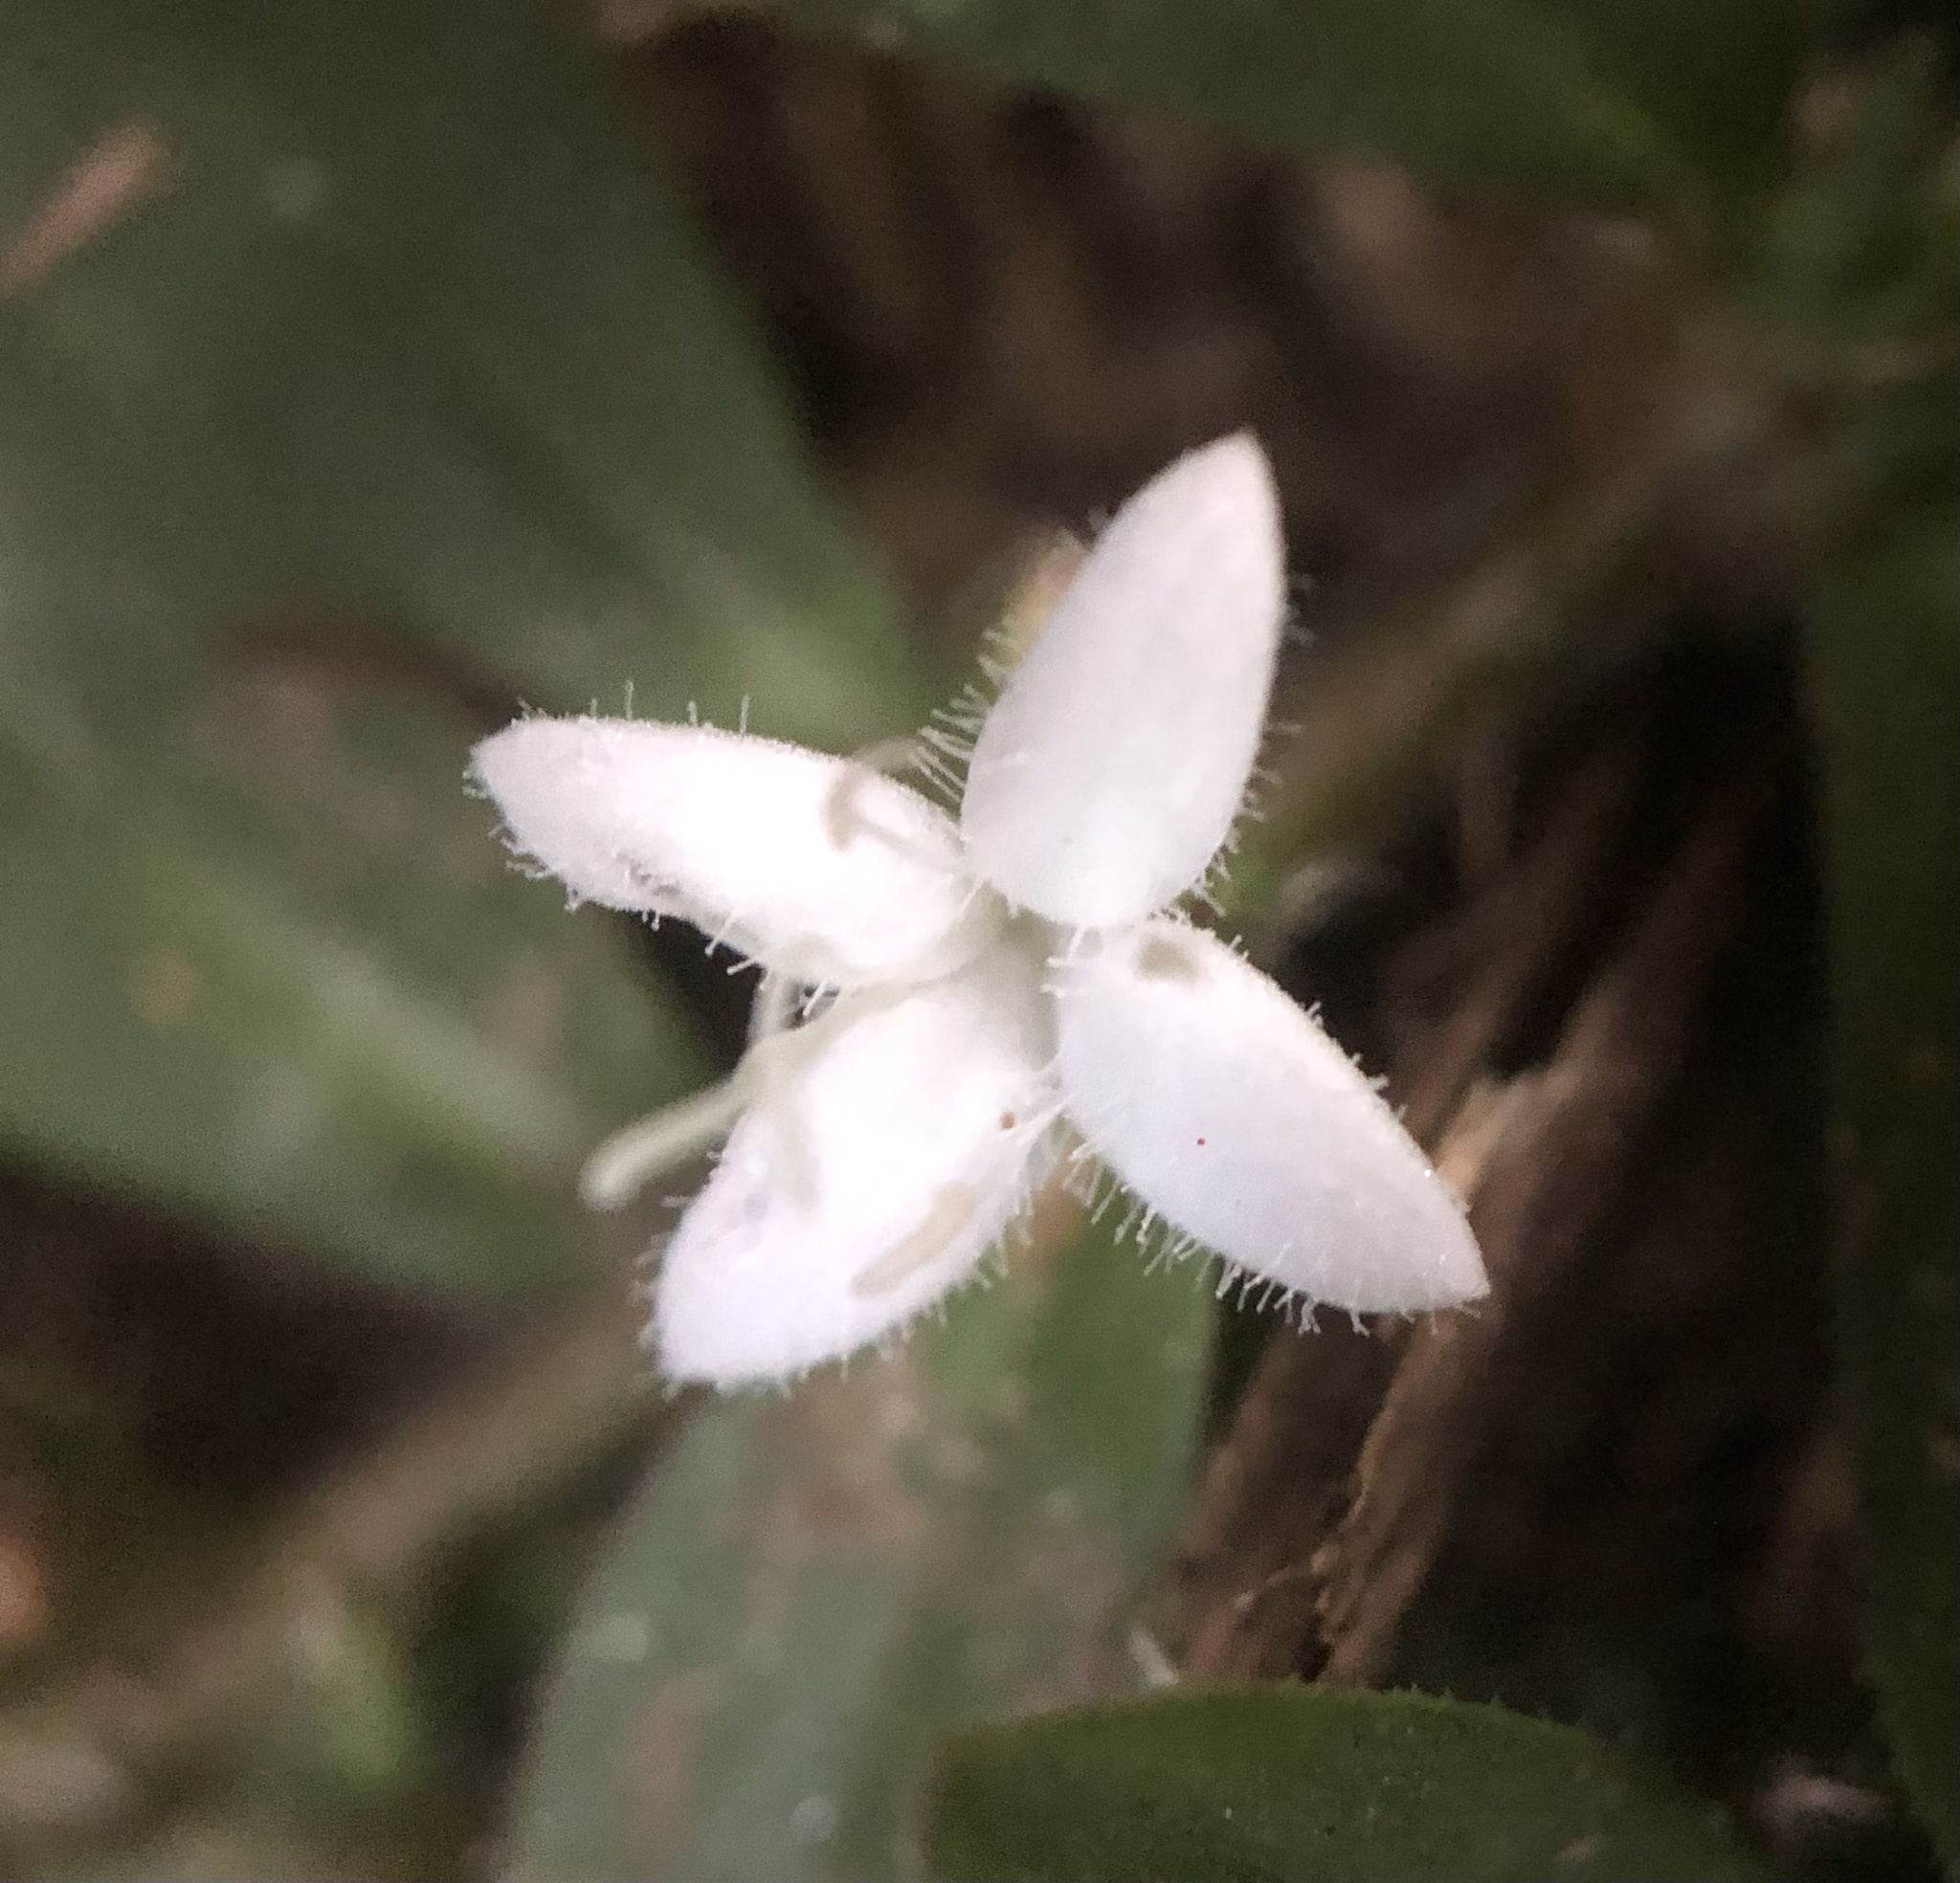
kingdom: Plantae
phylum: Tracheophyta
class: Magnoliopsida
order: Gentianales
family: Rubiaceae
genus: Diodia
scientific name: Diodia virginiana
